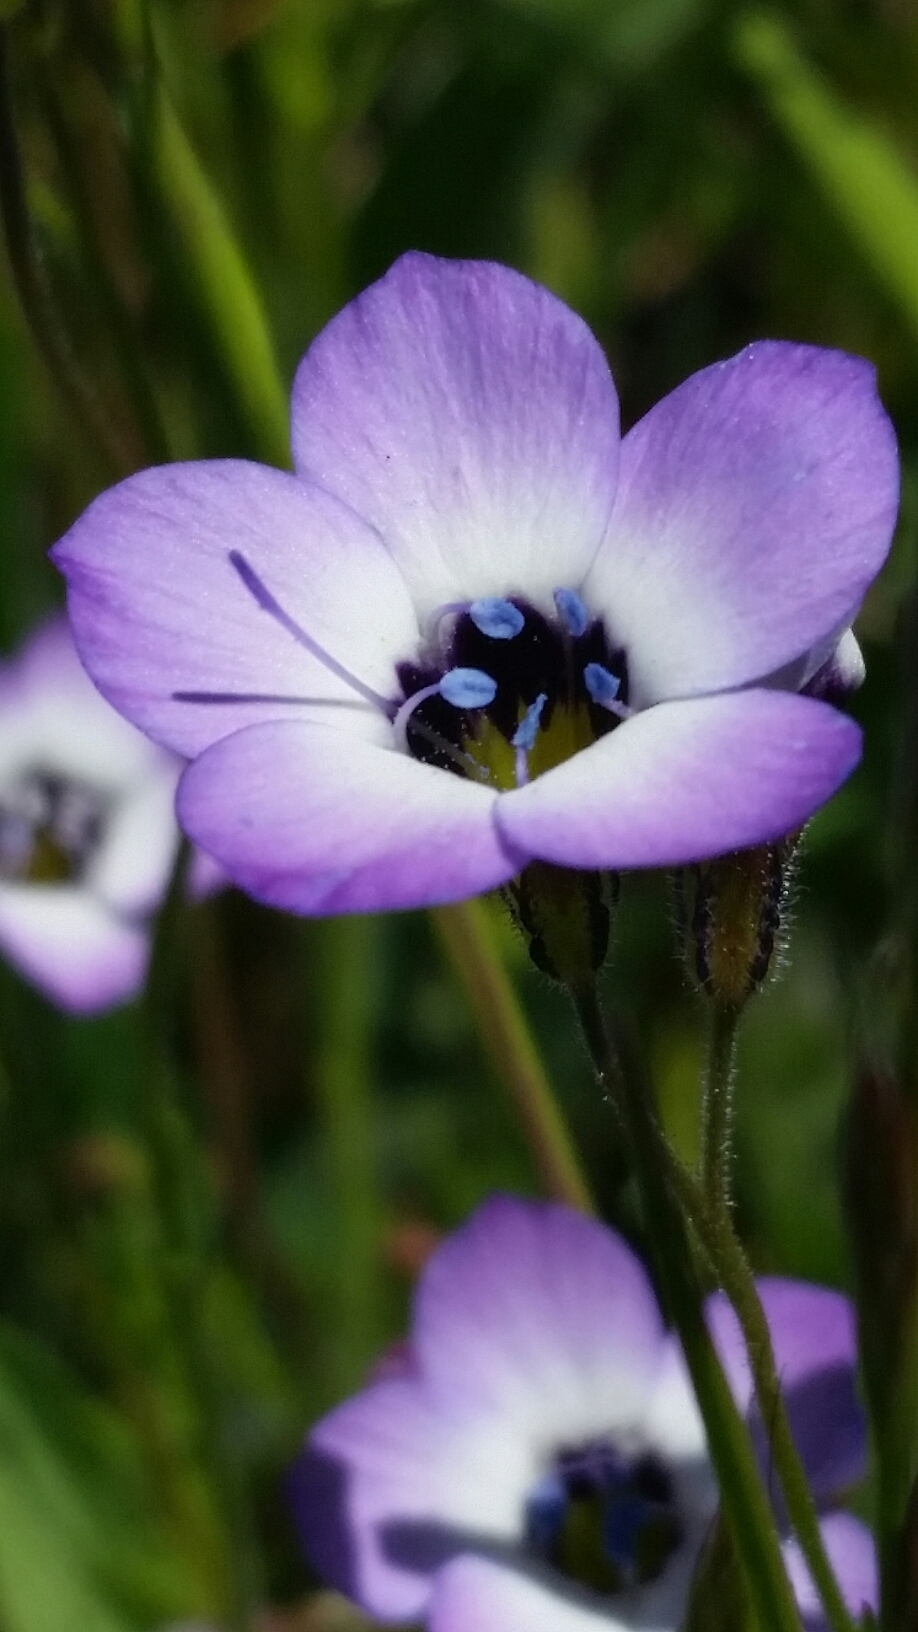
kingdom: Plantae
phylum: Tracheophyta
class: Magnoliopsida
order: Ericales
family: Polemoniaceae
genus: Gilia
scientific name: Gilia tricolor
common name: Bird's-eyes
